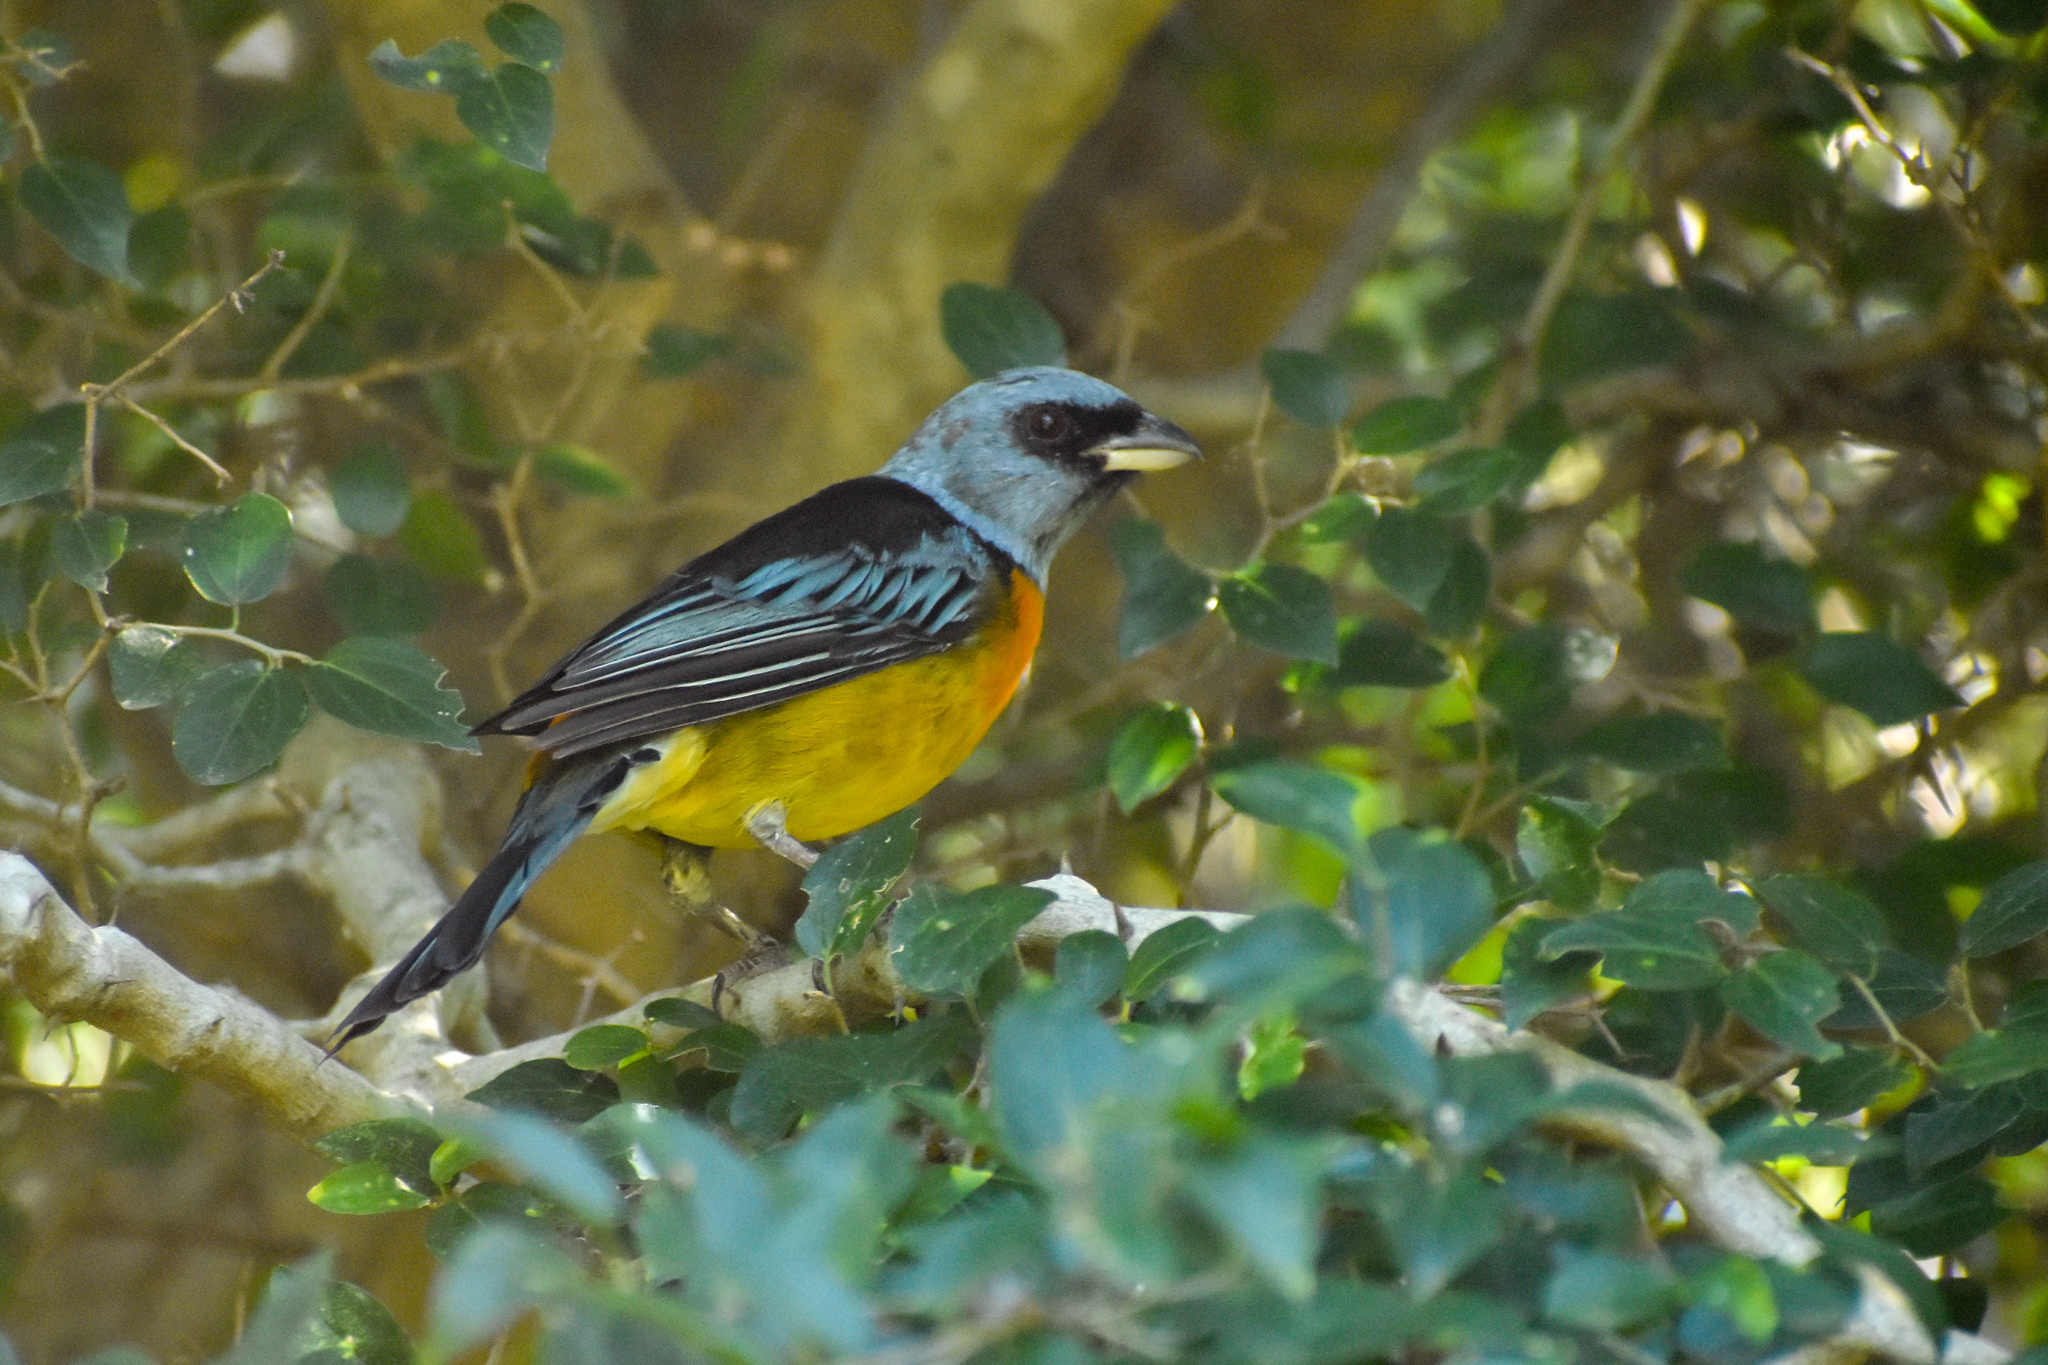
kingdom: Animalia
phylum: Chordata
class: Aves
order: Passeriformes
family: Thraupidae
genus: Rauenia
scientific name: Rauenia bonariensis
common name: Blue-and-yellow tanager
